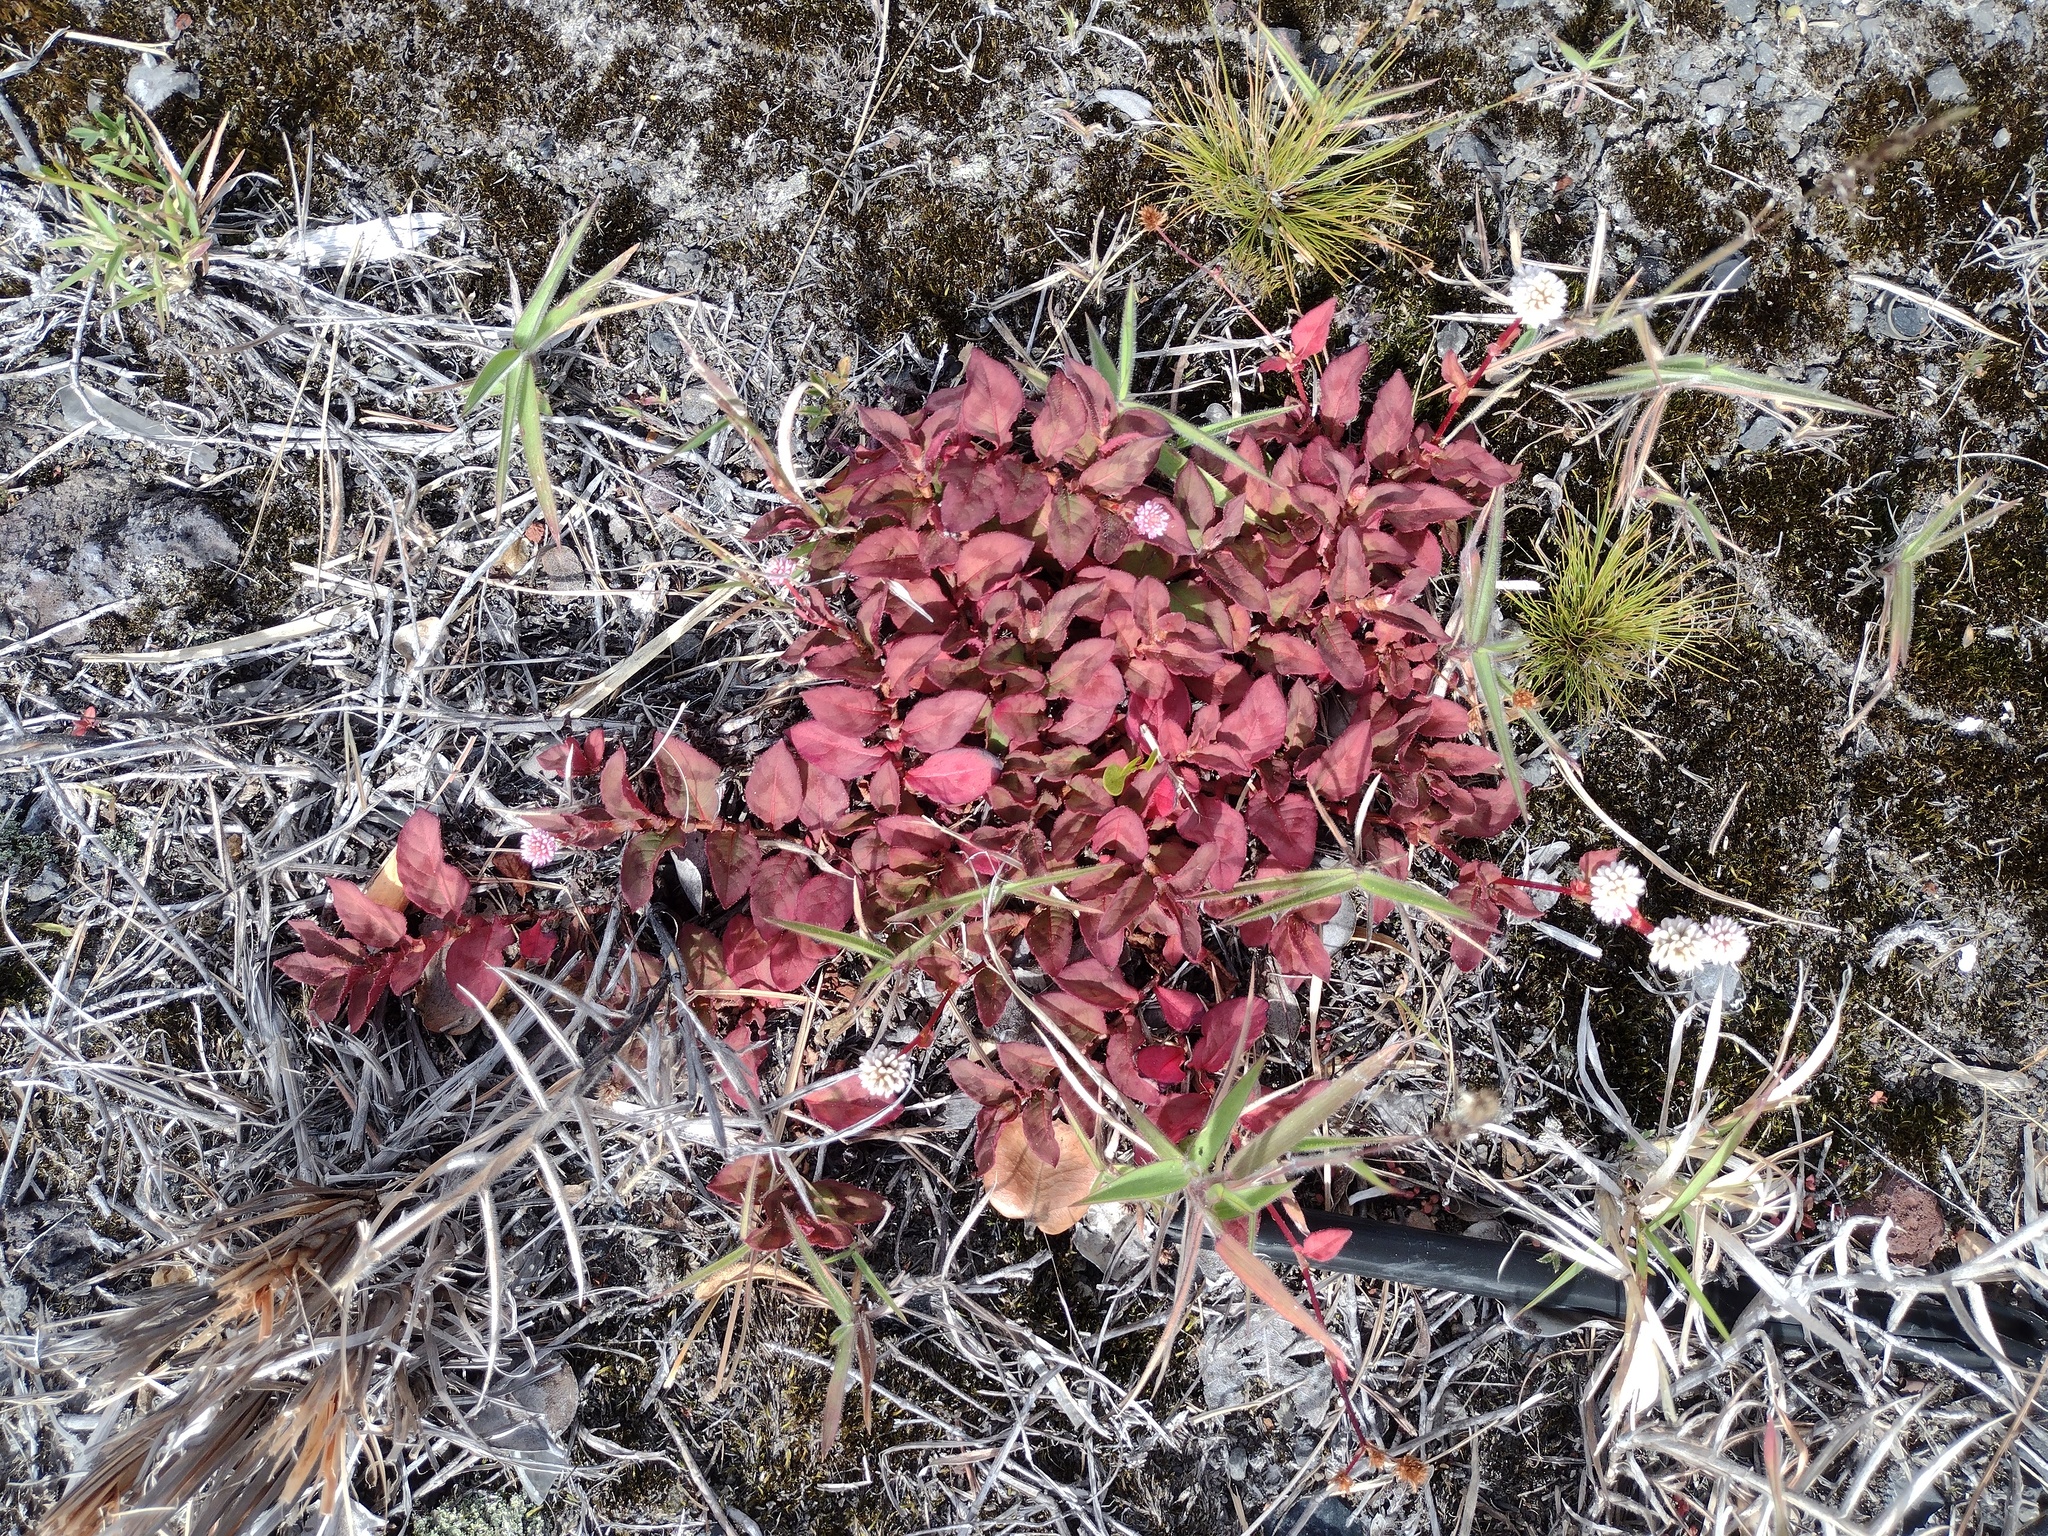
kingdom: Plantae
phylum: Tracheophyta
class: Magnoliopsida
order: Caryophyllales
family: Polygonaceae
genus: Persicaria
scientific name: Persicaria capitata
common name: Pinkhead smartweed
